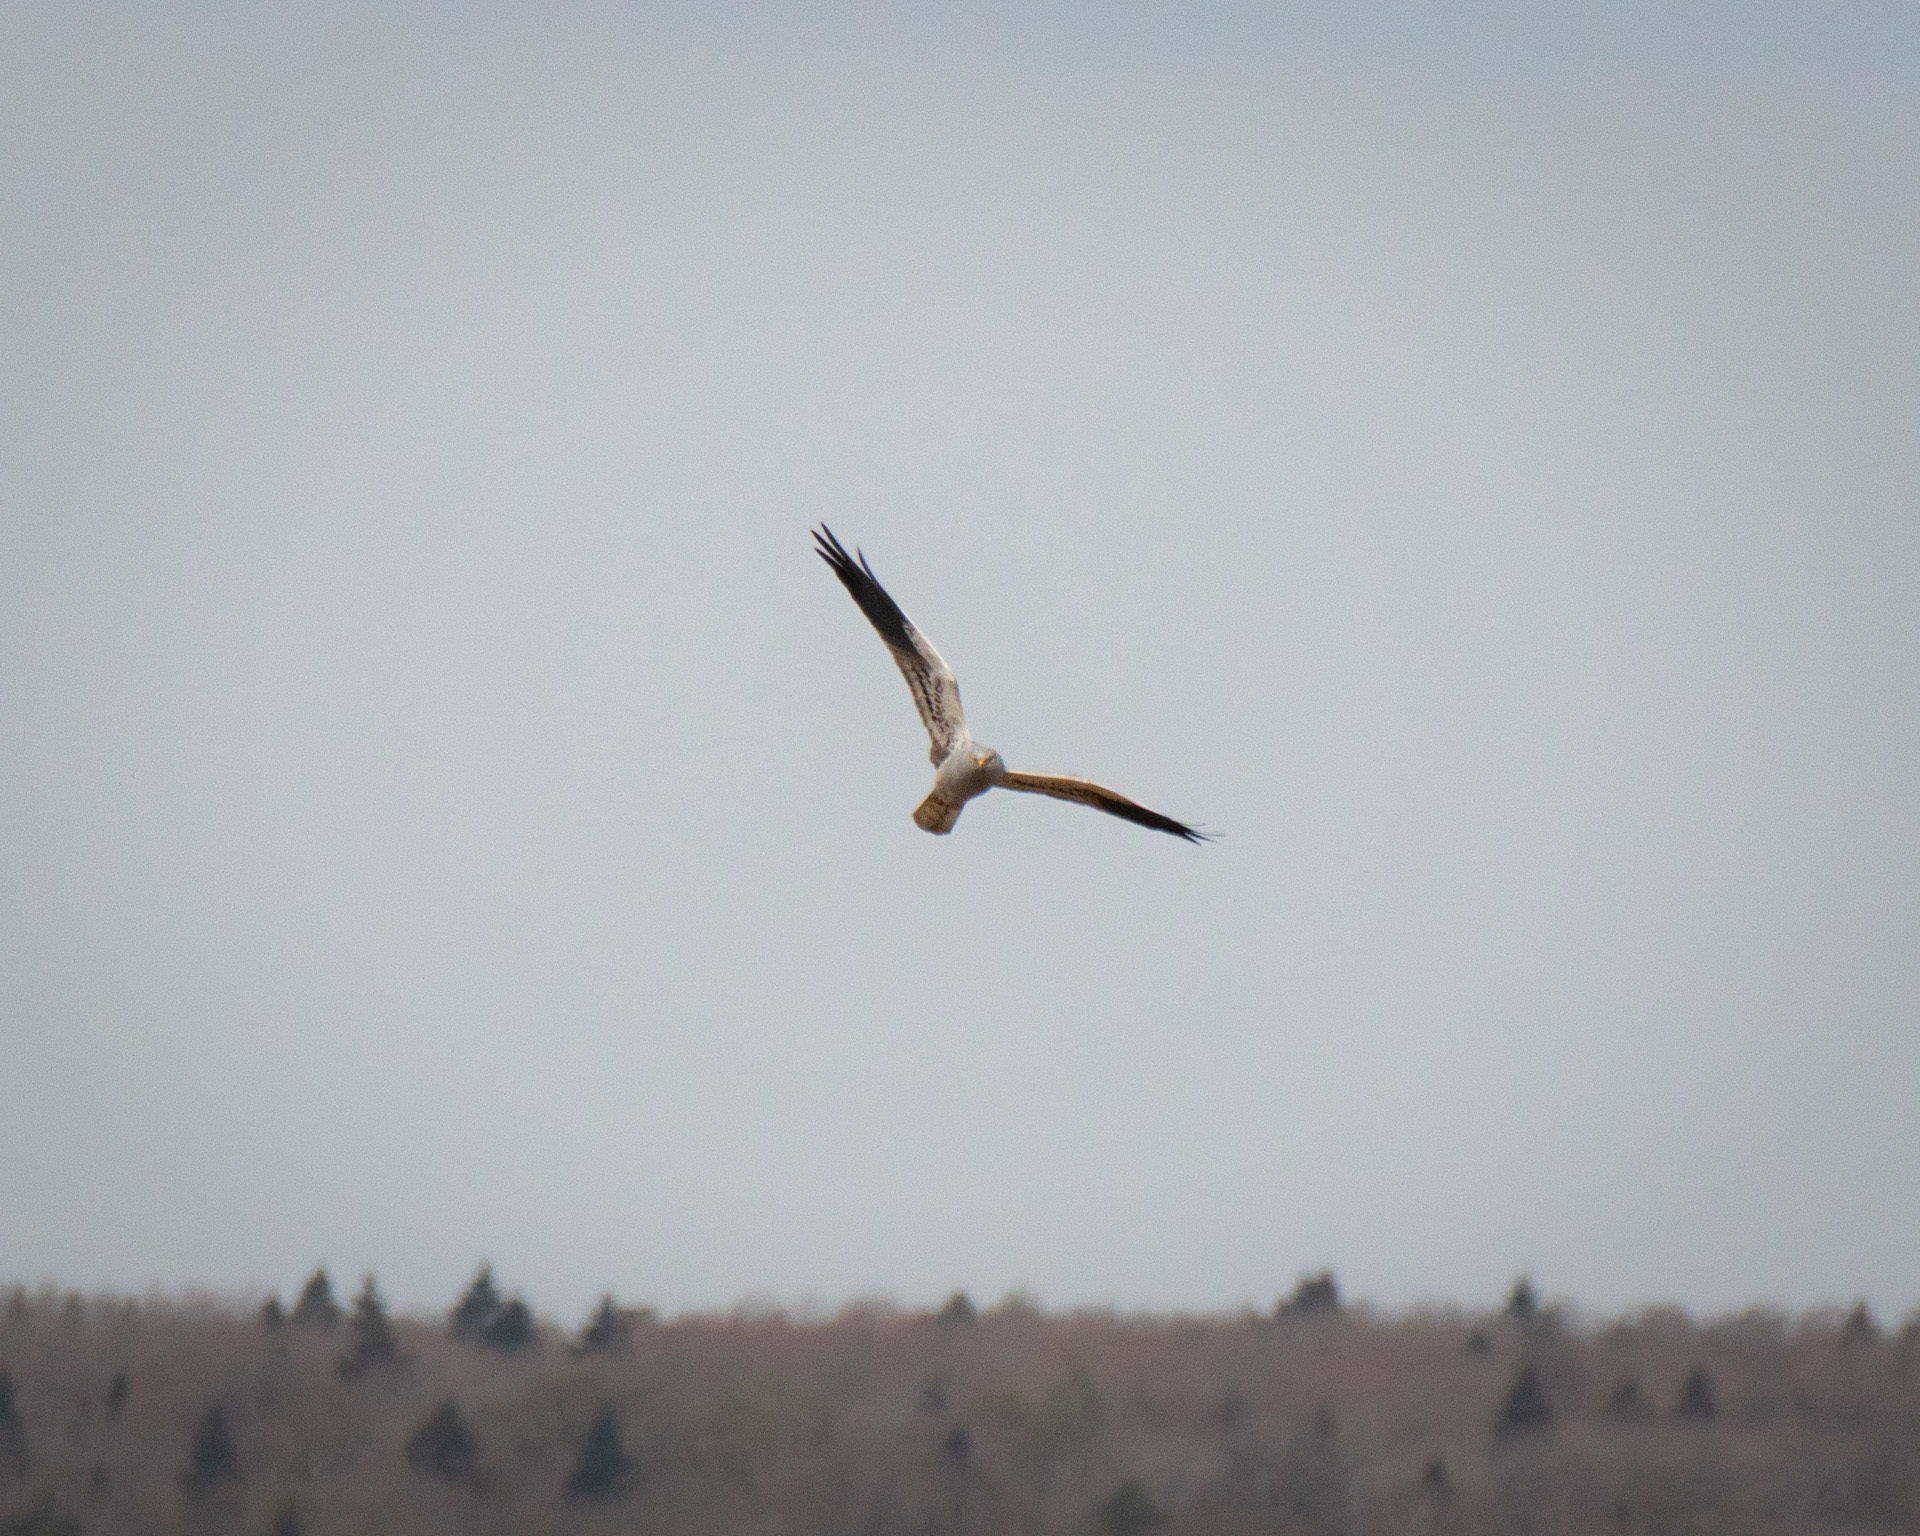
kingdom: Animalia
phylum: Chordata
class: Aves
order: Accipitriformes
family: Accipitridae
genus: Circus
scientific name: Circus pygargus
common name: Montagu's harrier
